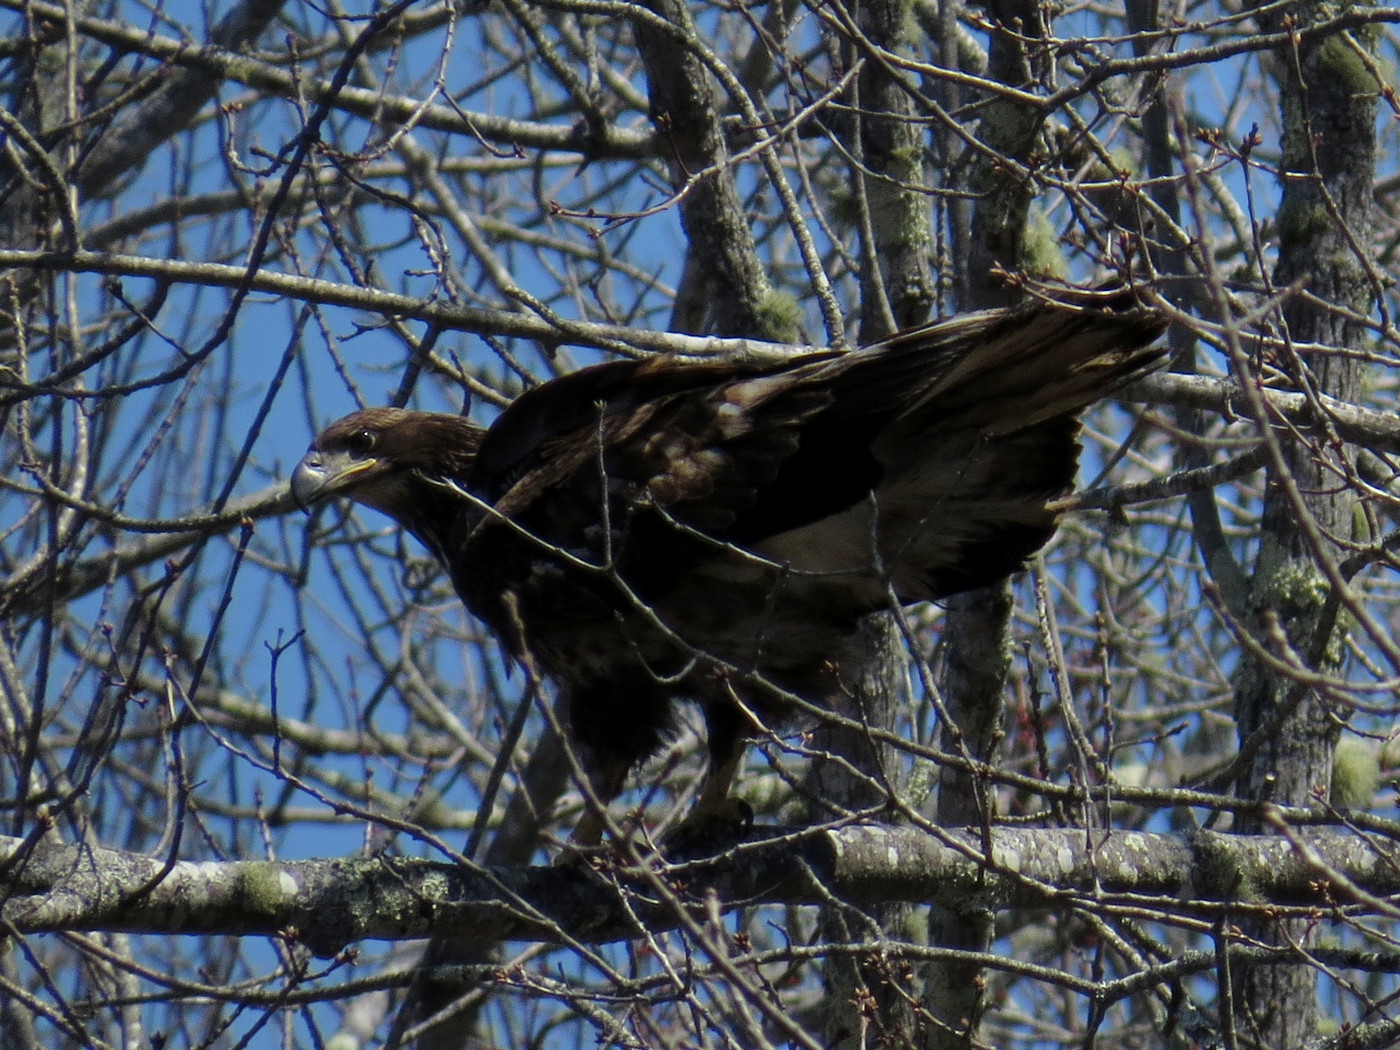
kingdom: Animalia
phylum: Chordata
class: Aves
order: Accipitriformes
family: Accipitridae
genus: Haliaeetus
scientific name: Haliaeetus leucocephalus
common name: Bald eagle
